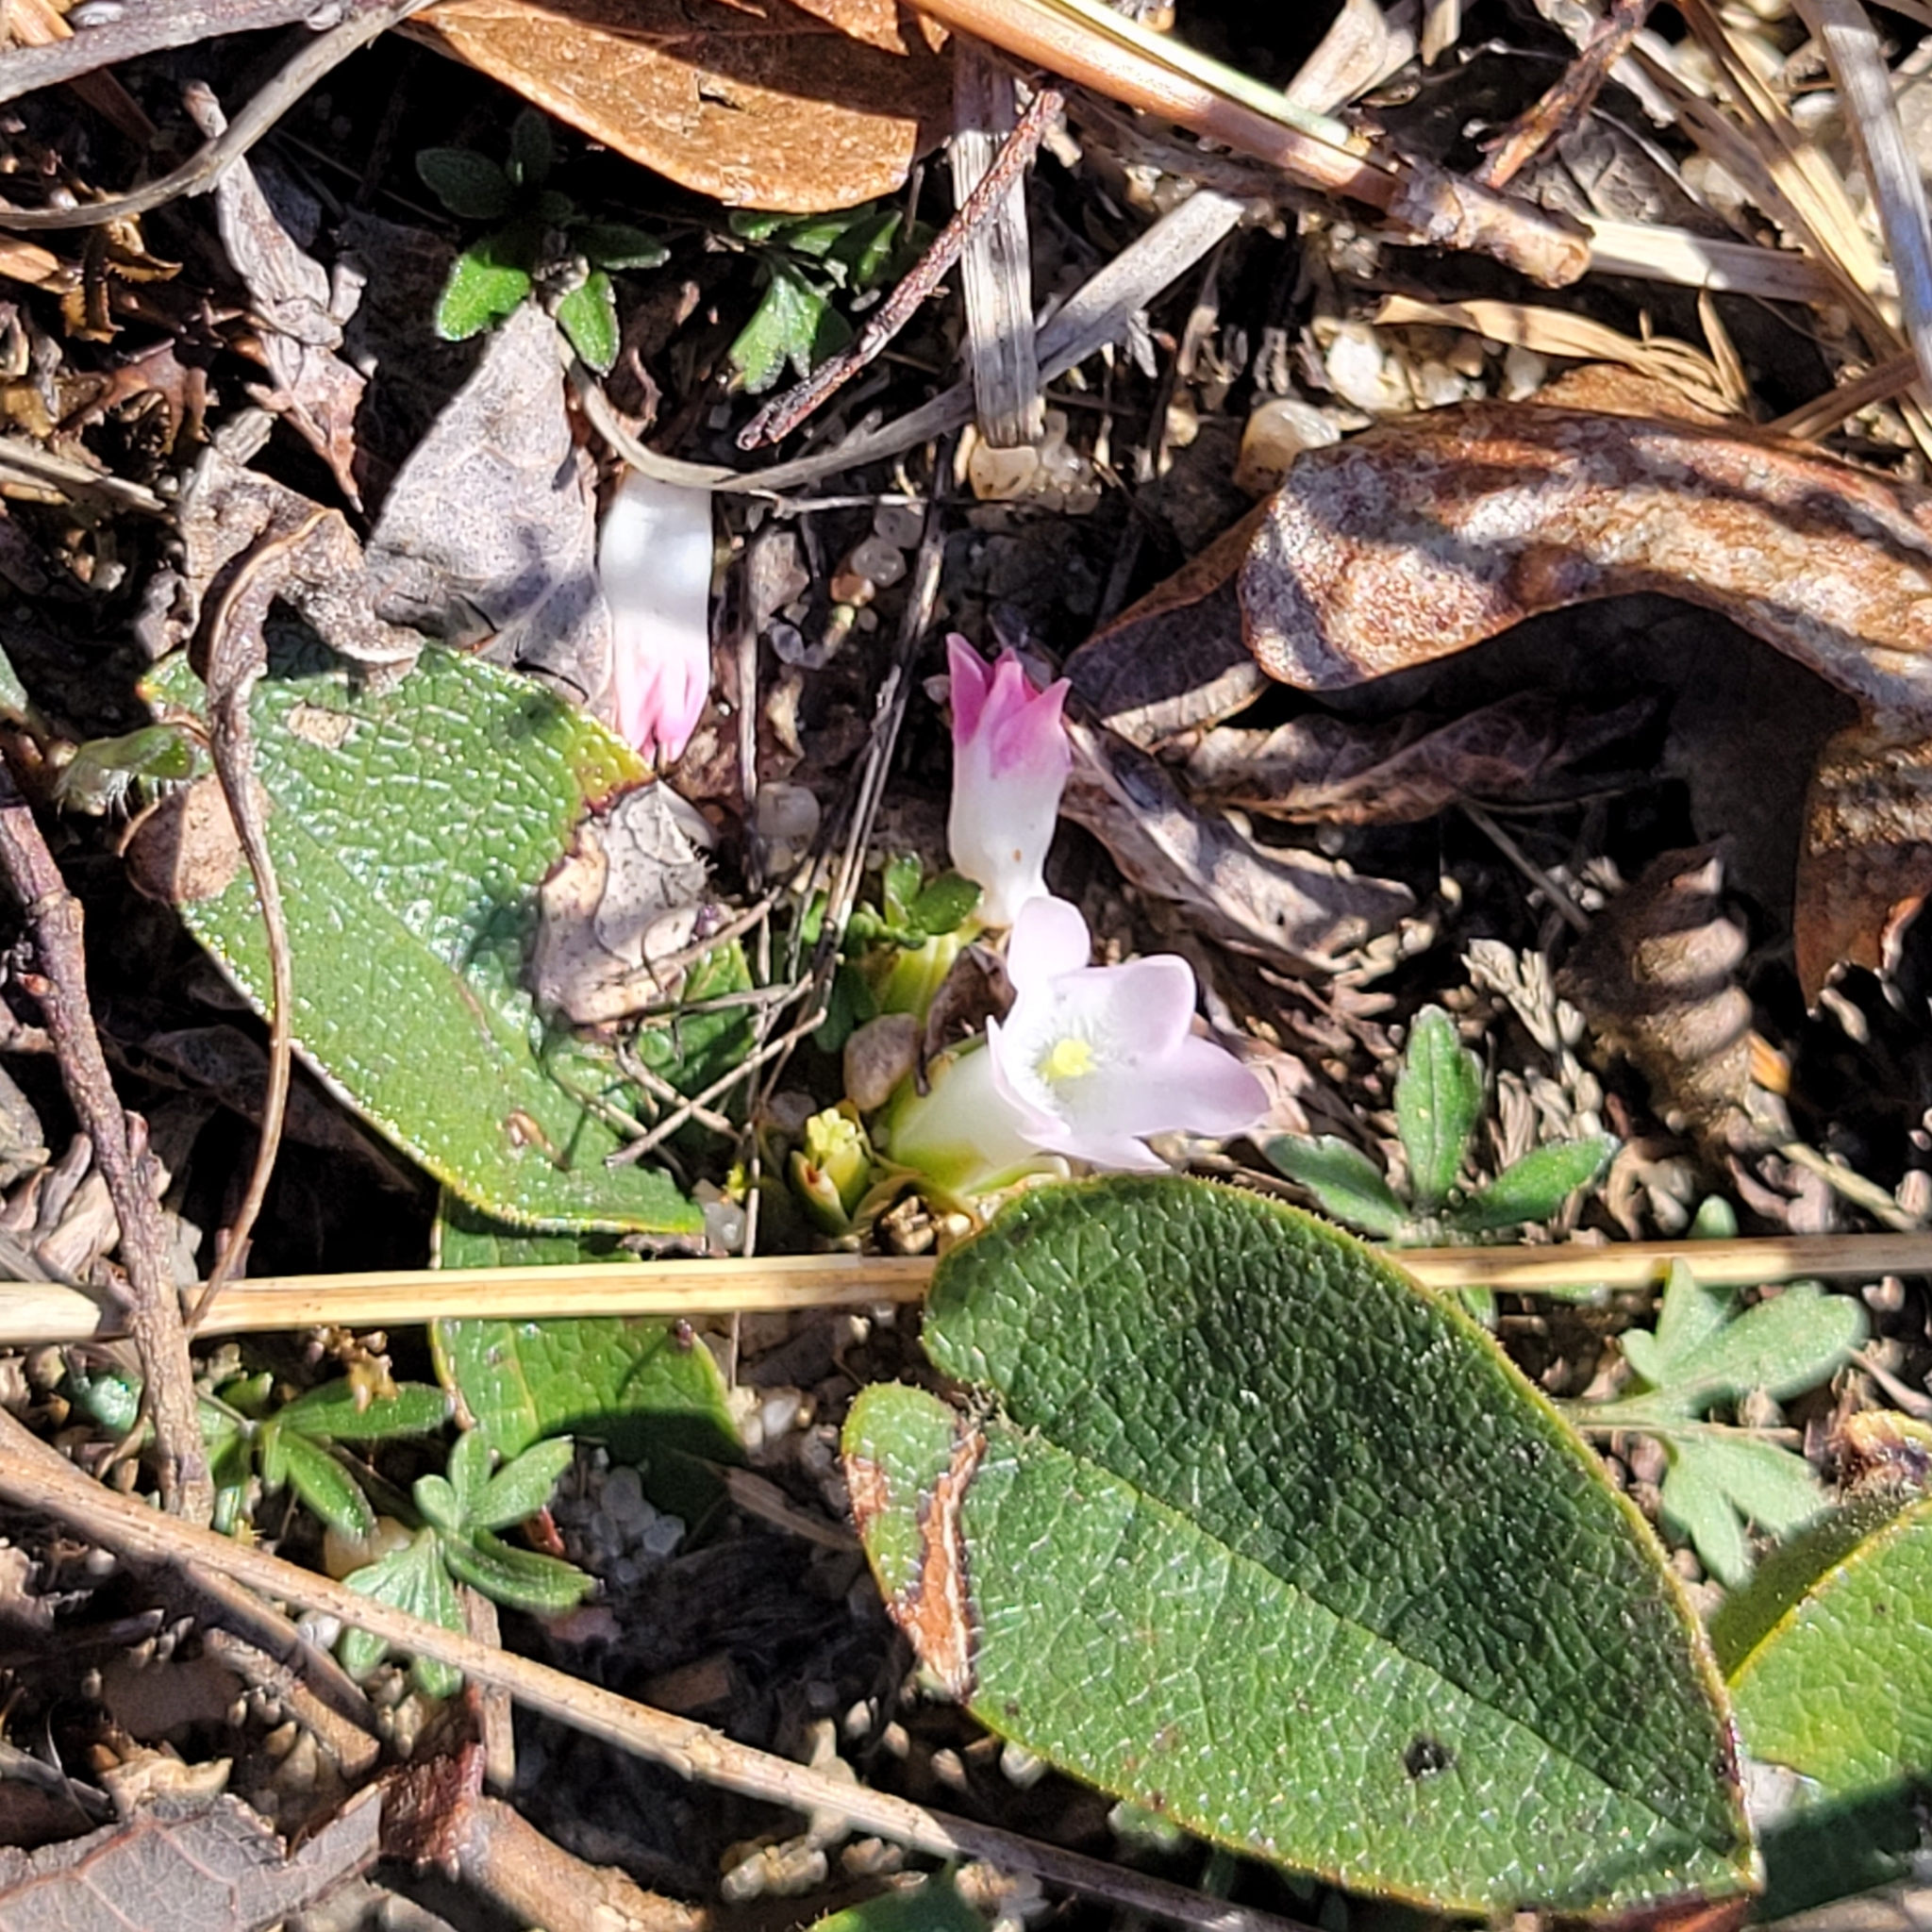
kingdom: Plantae
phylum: Tracheophyta
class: Magnoliopsida
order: Ericales
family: Ericaceae
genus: Epigaea
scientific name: Epigaea repens
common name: Gravelroot
